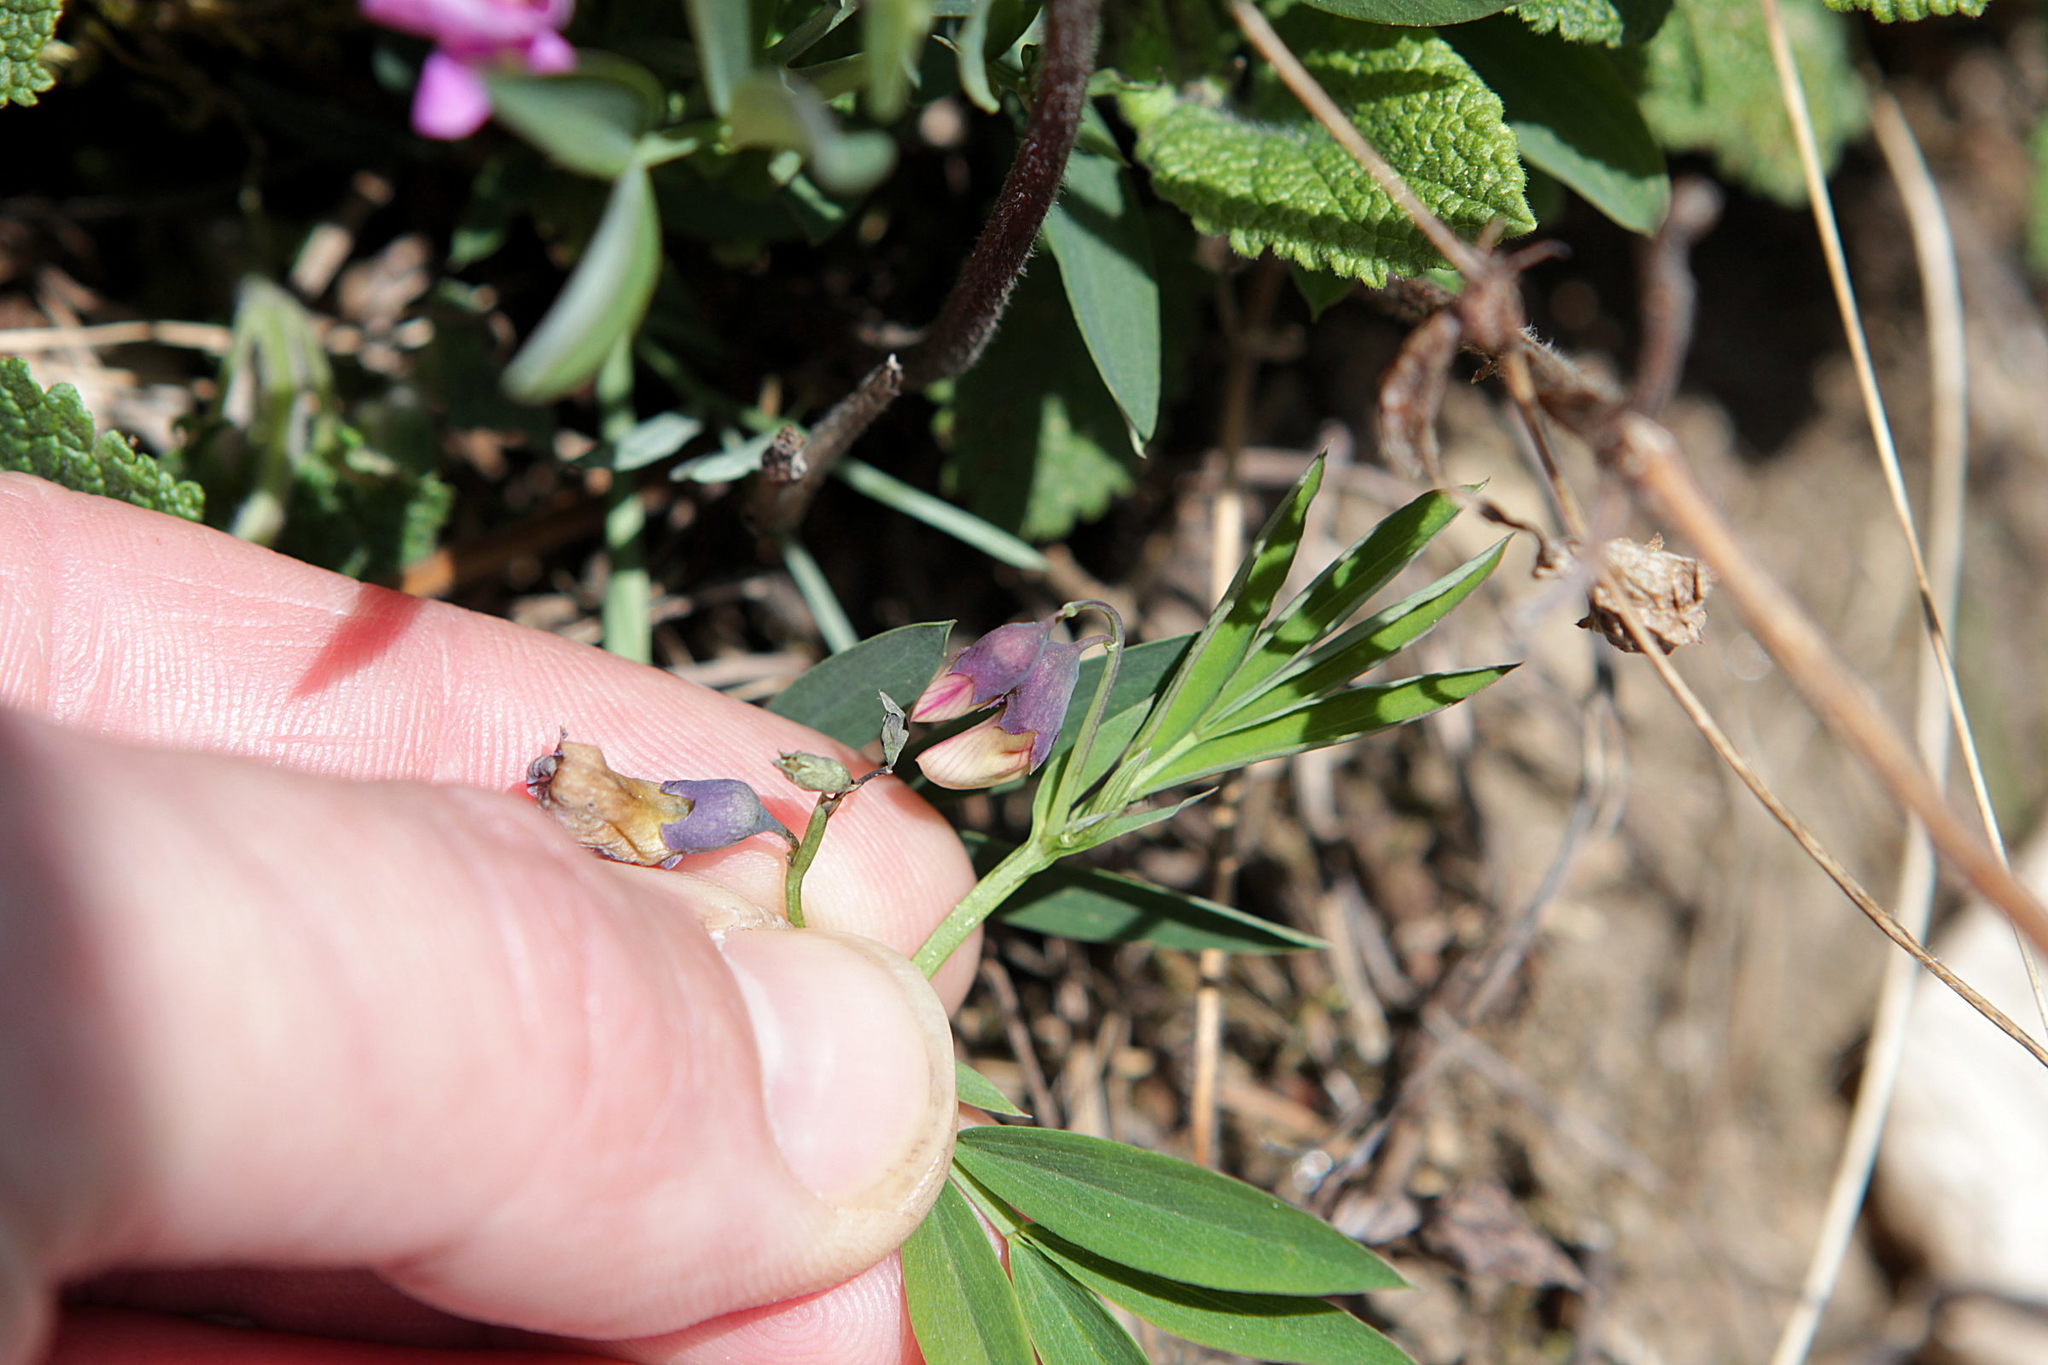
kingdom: Plantae
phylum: Tracheophyta
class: Magnoliopsida
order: Fabales
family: Fabaceae
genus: Lathyrus
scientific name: Lathyrus linifolius
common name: Bitter-vetch
